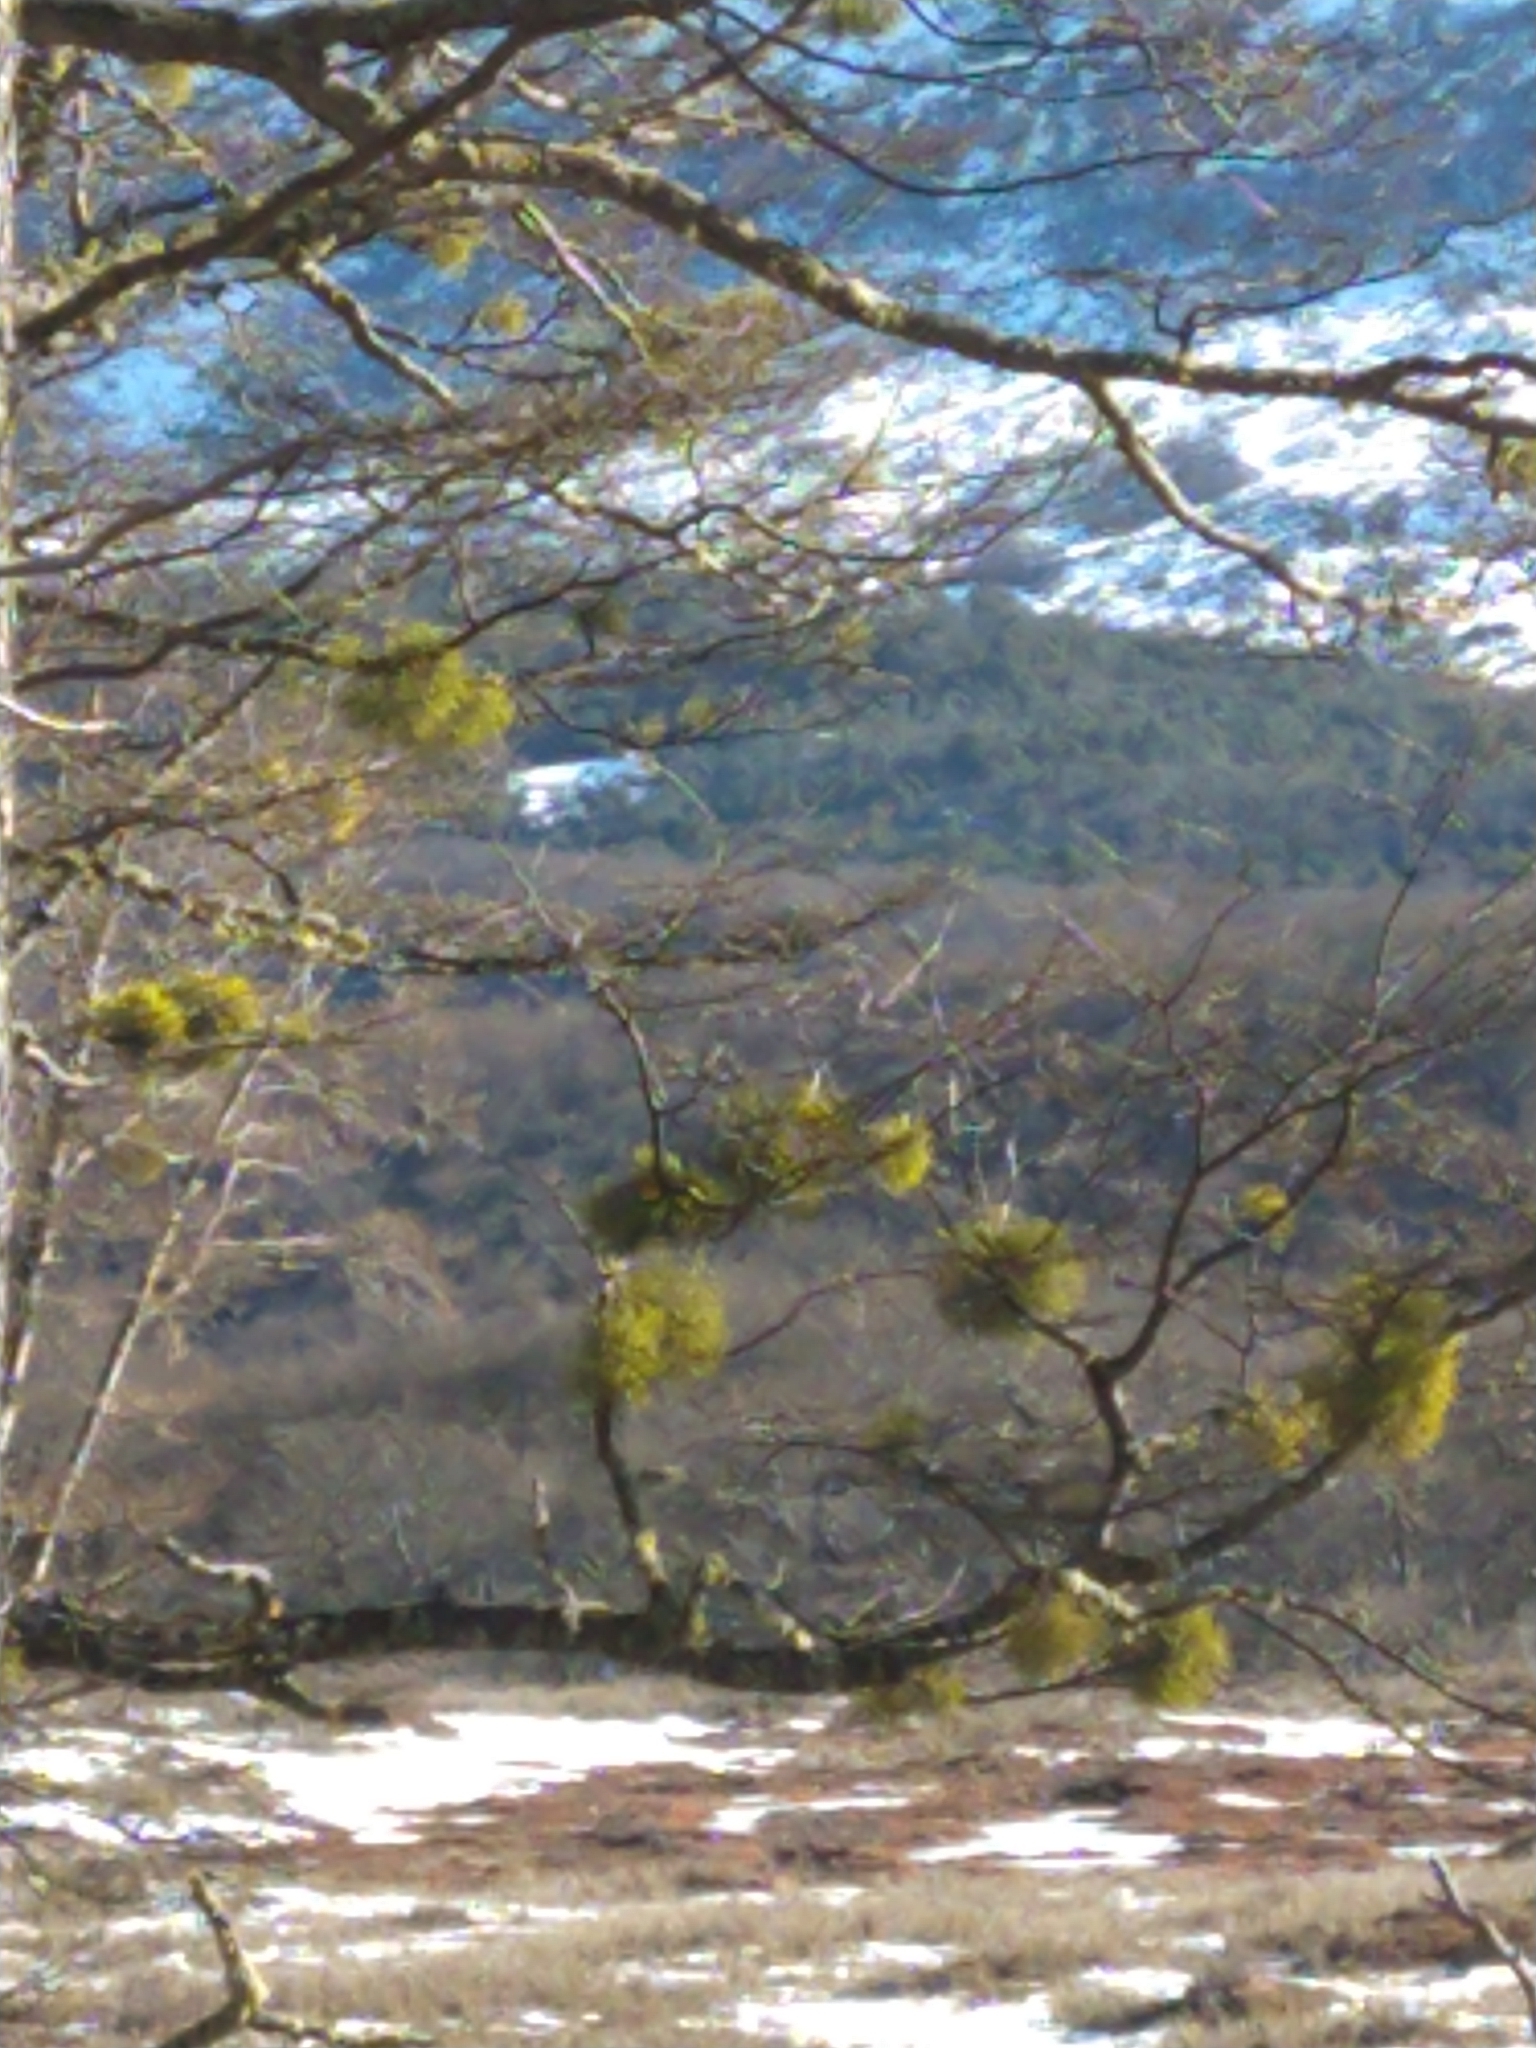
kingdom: Plantae
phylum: Tracheophyta
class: Magnoliopsida
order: Santalales
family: Misodendraceae
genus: Misodendrum
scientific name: Misodendrum punctulatum
